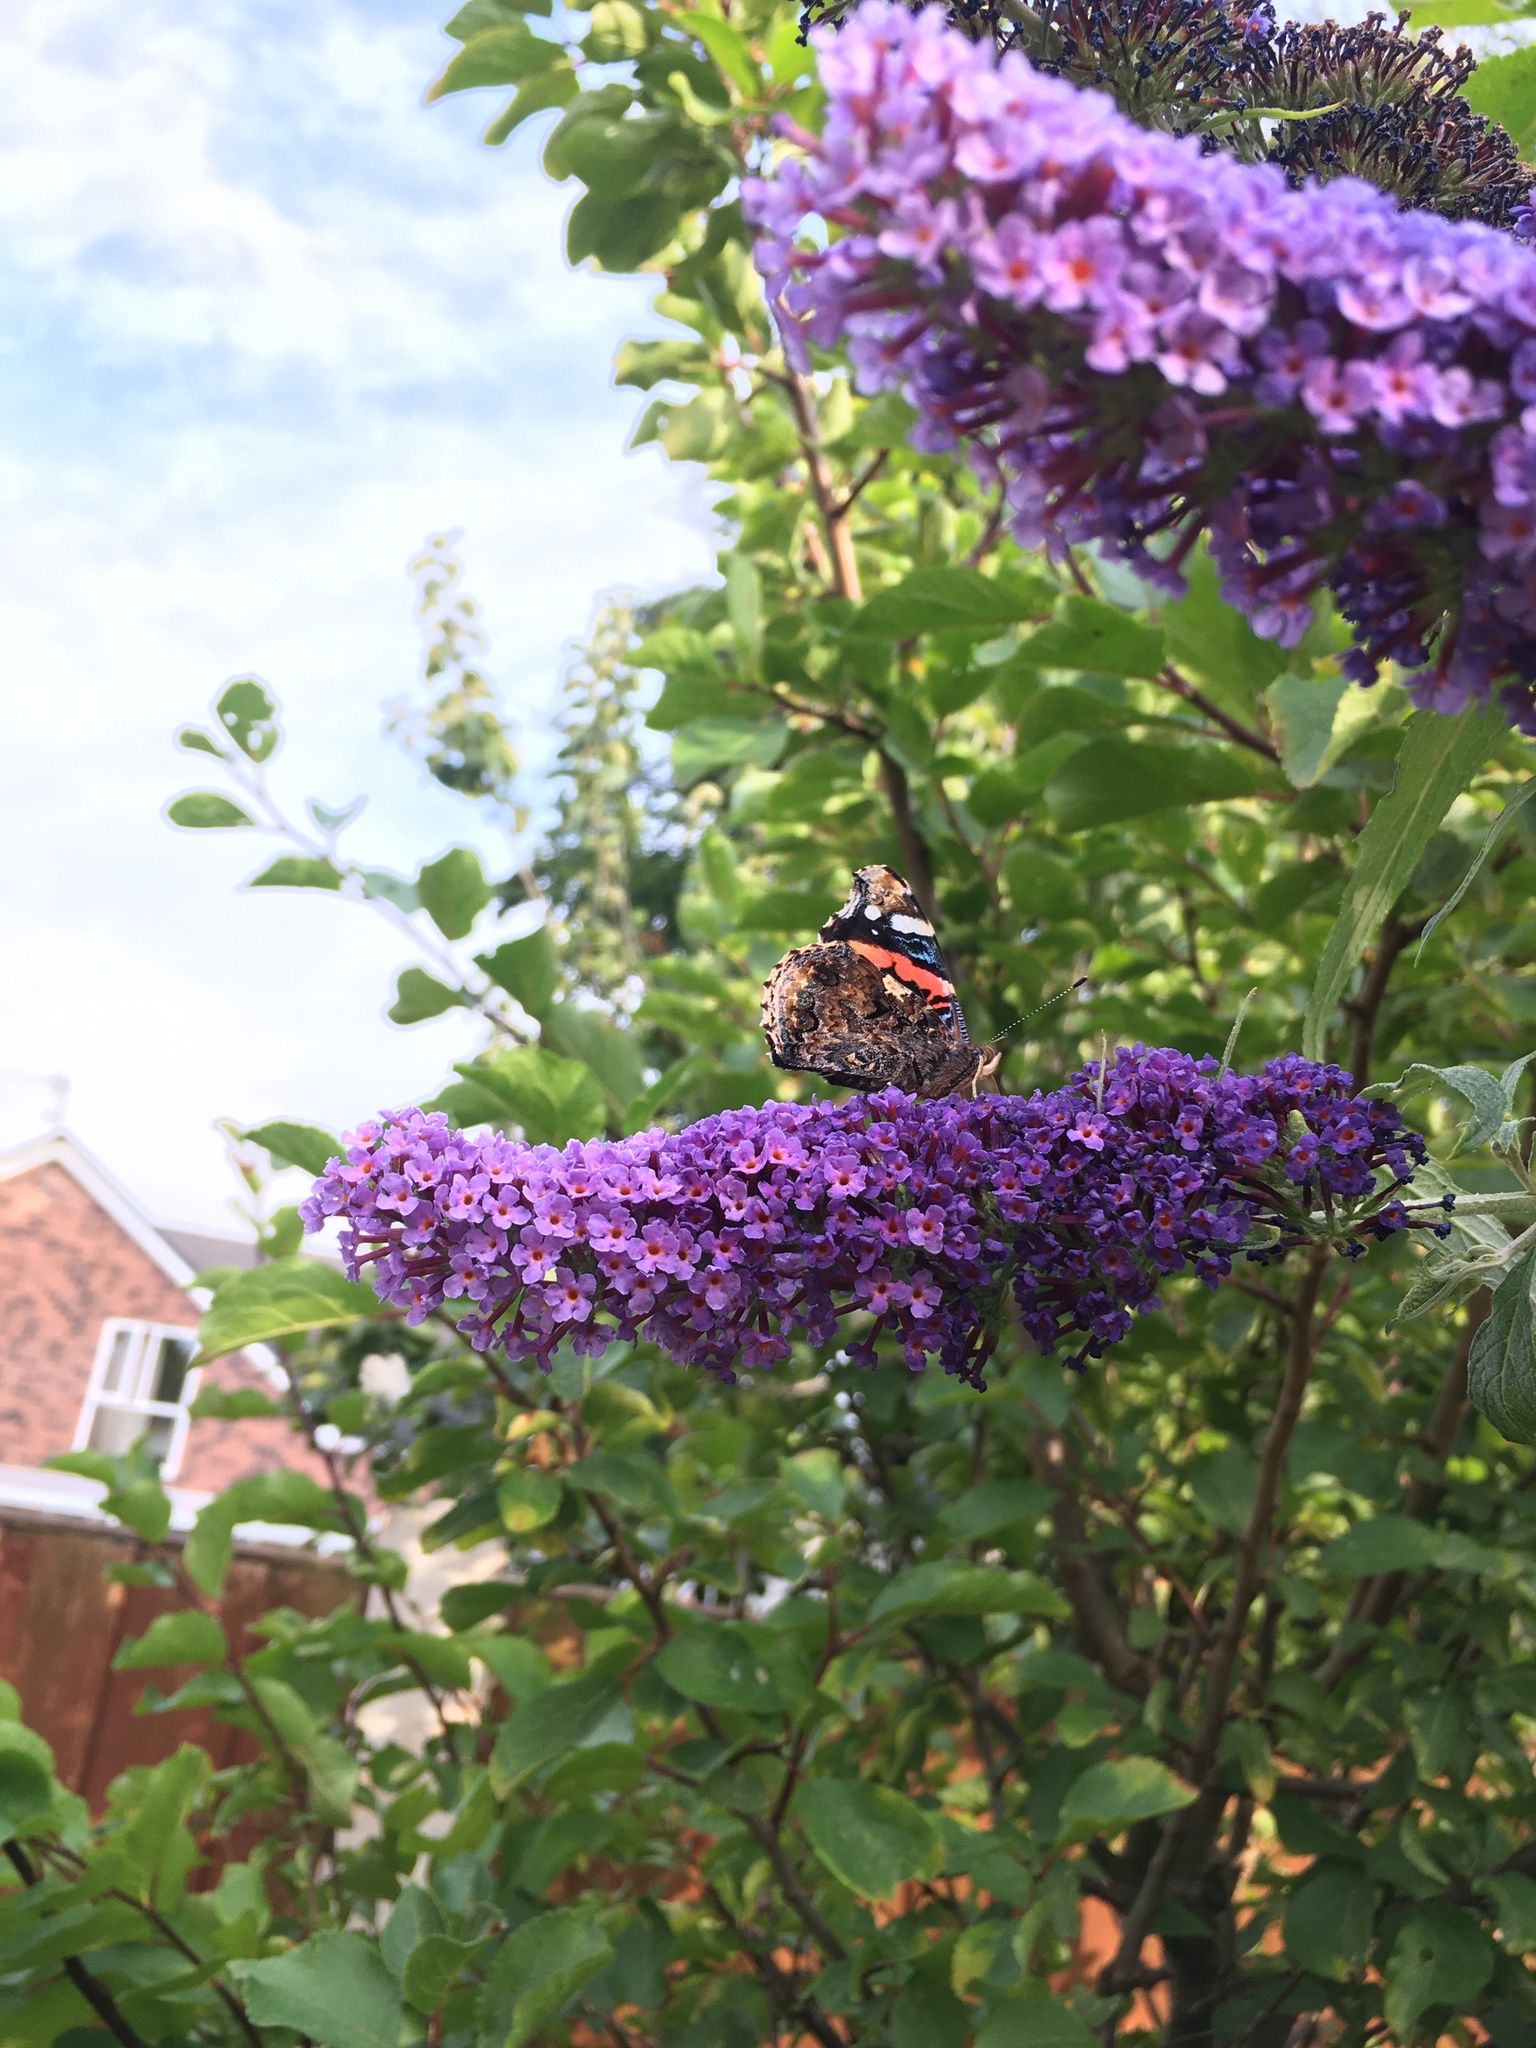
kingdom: Animalia
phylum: Arthropoda
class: Insecta
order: Lepidoptera
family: Nymphalidae
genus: Vanessa
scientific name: Vanessa atalanta
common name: Red admiral
